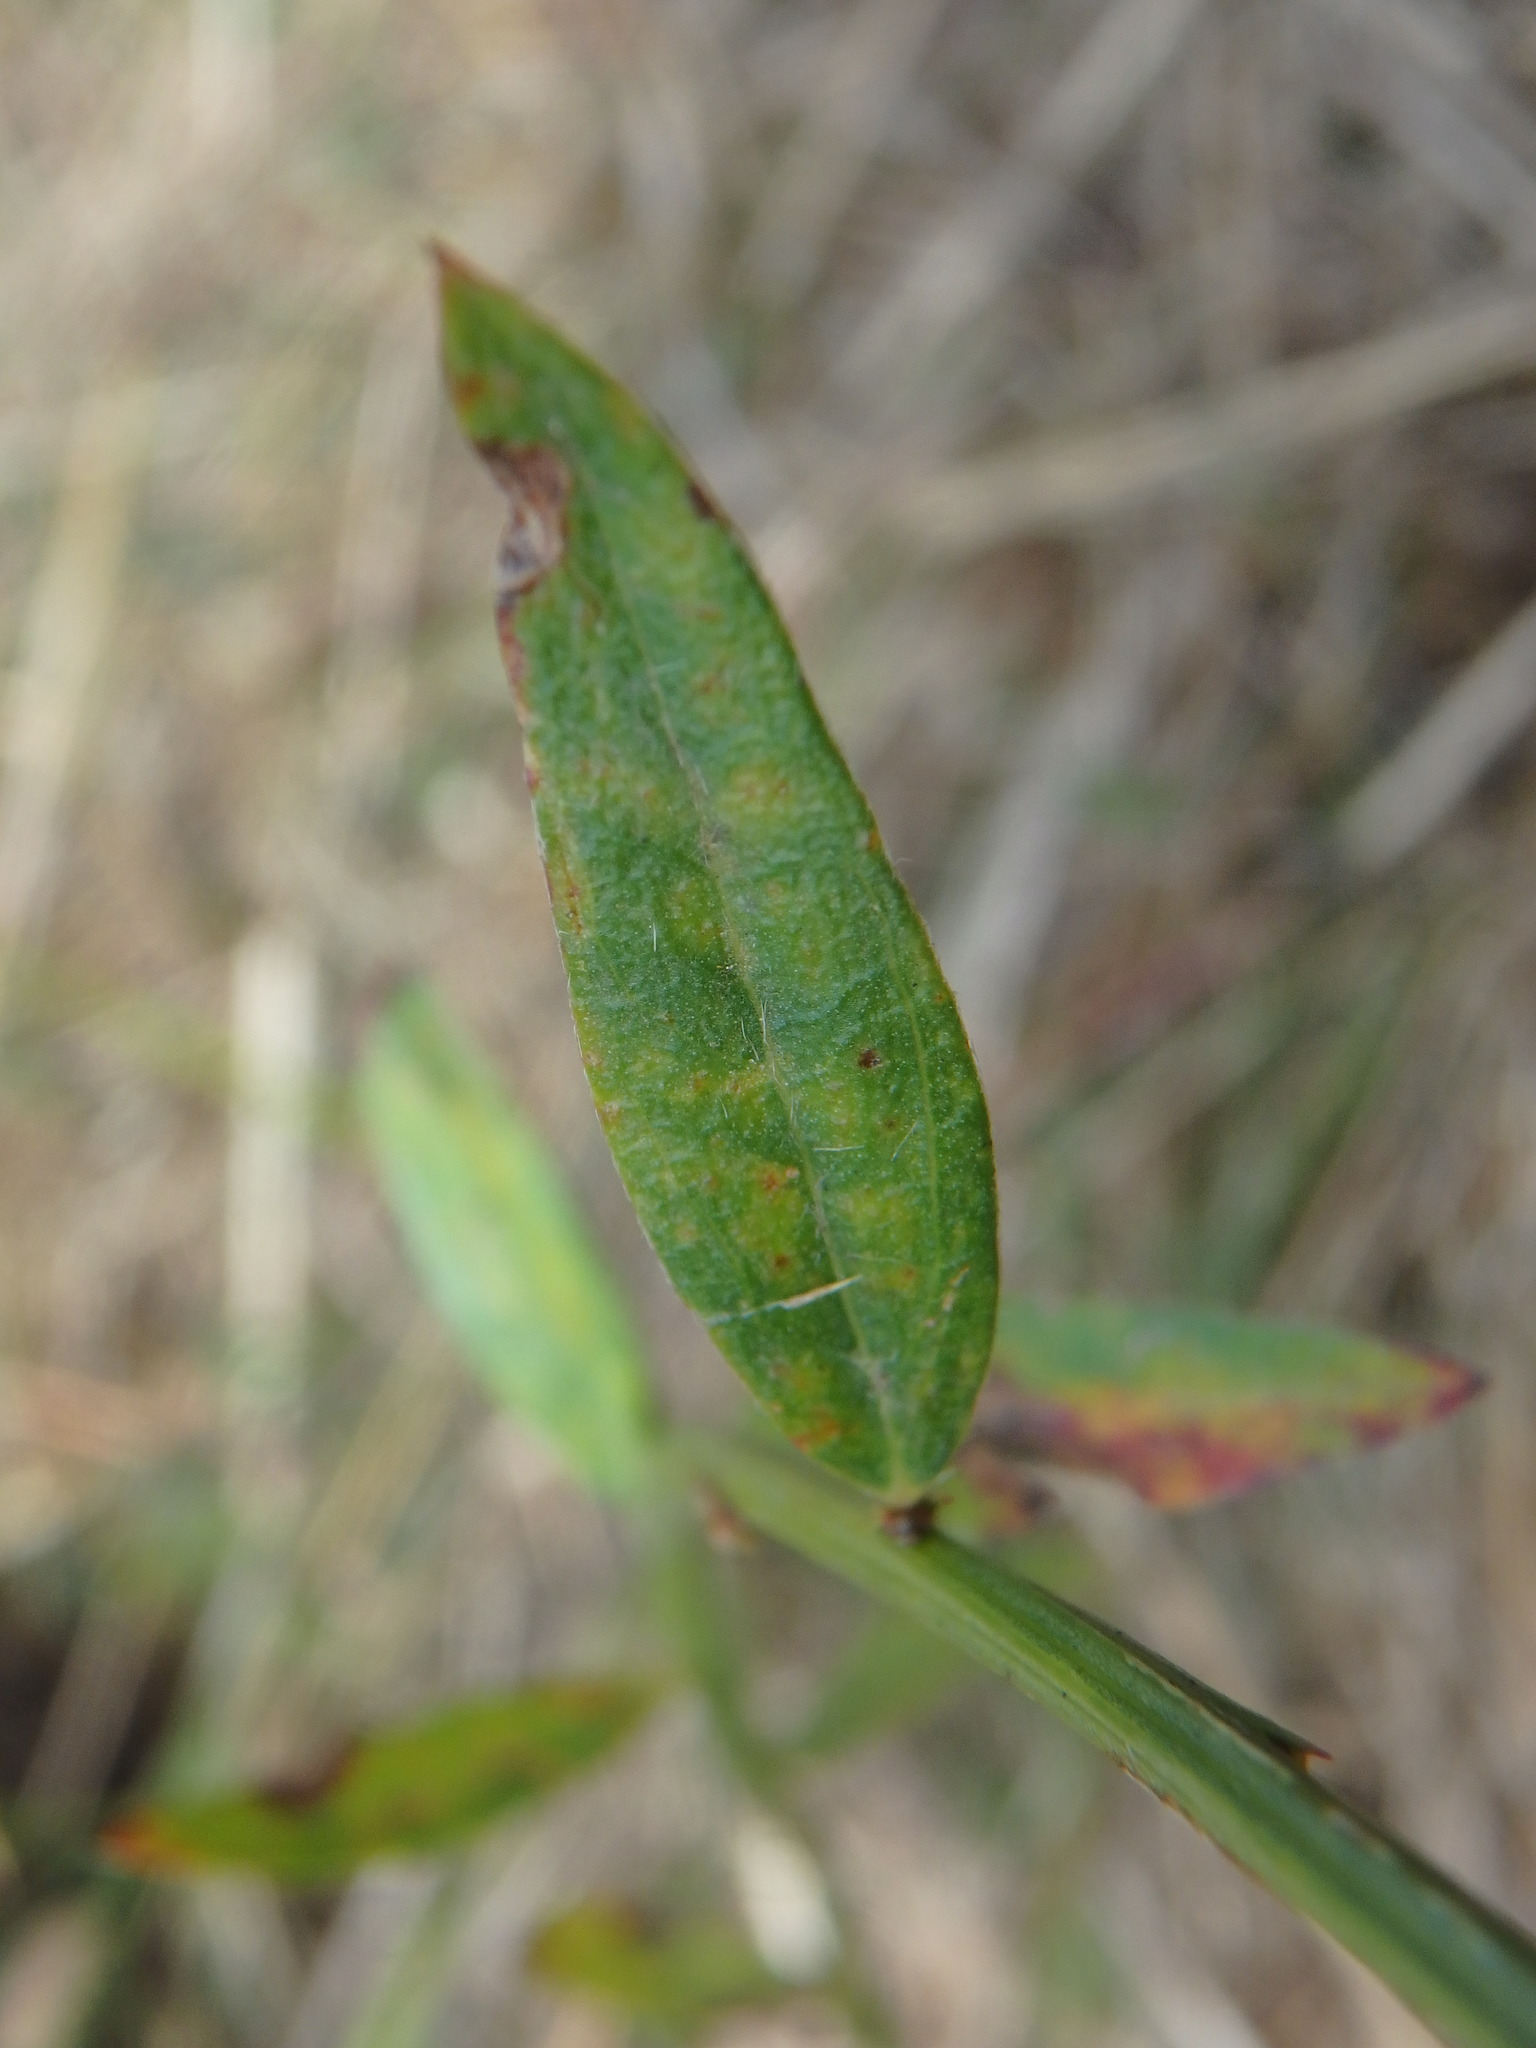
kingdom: Plantae
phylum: Tracheophyta
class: Magnoliopsida
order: Fabales
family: Fabaceae
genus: Genista
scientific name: Genista tinctoria
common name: Dyer's greenweed
